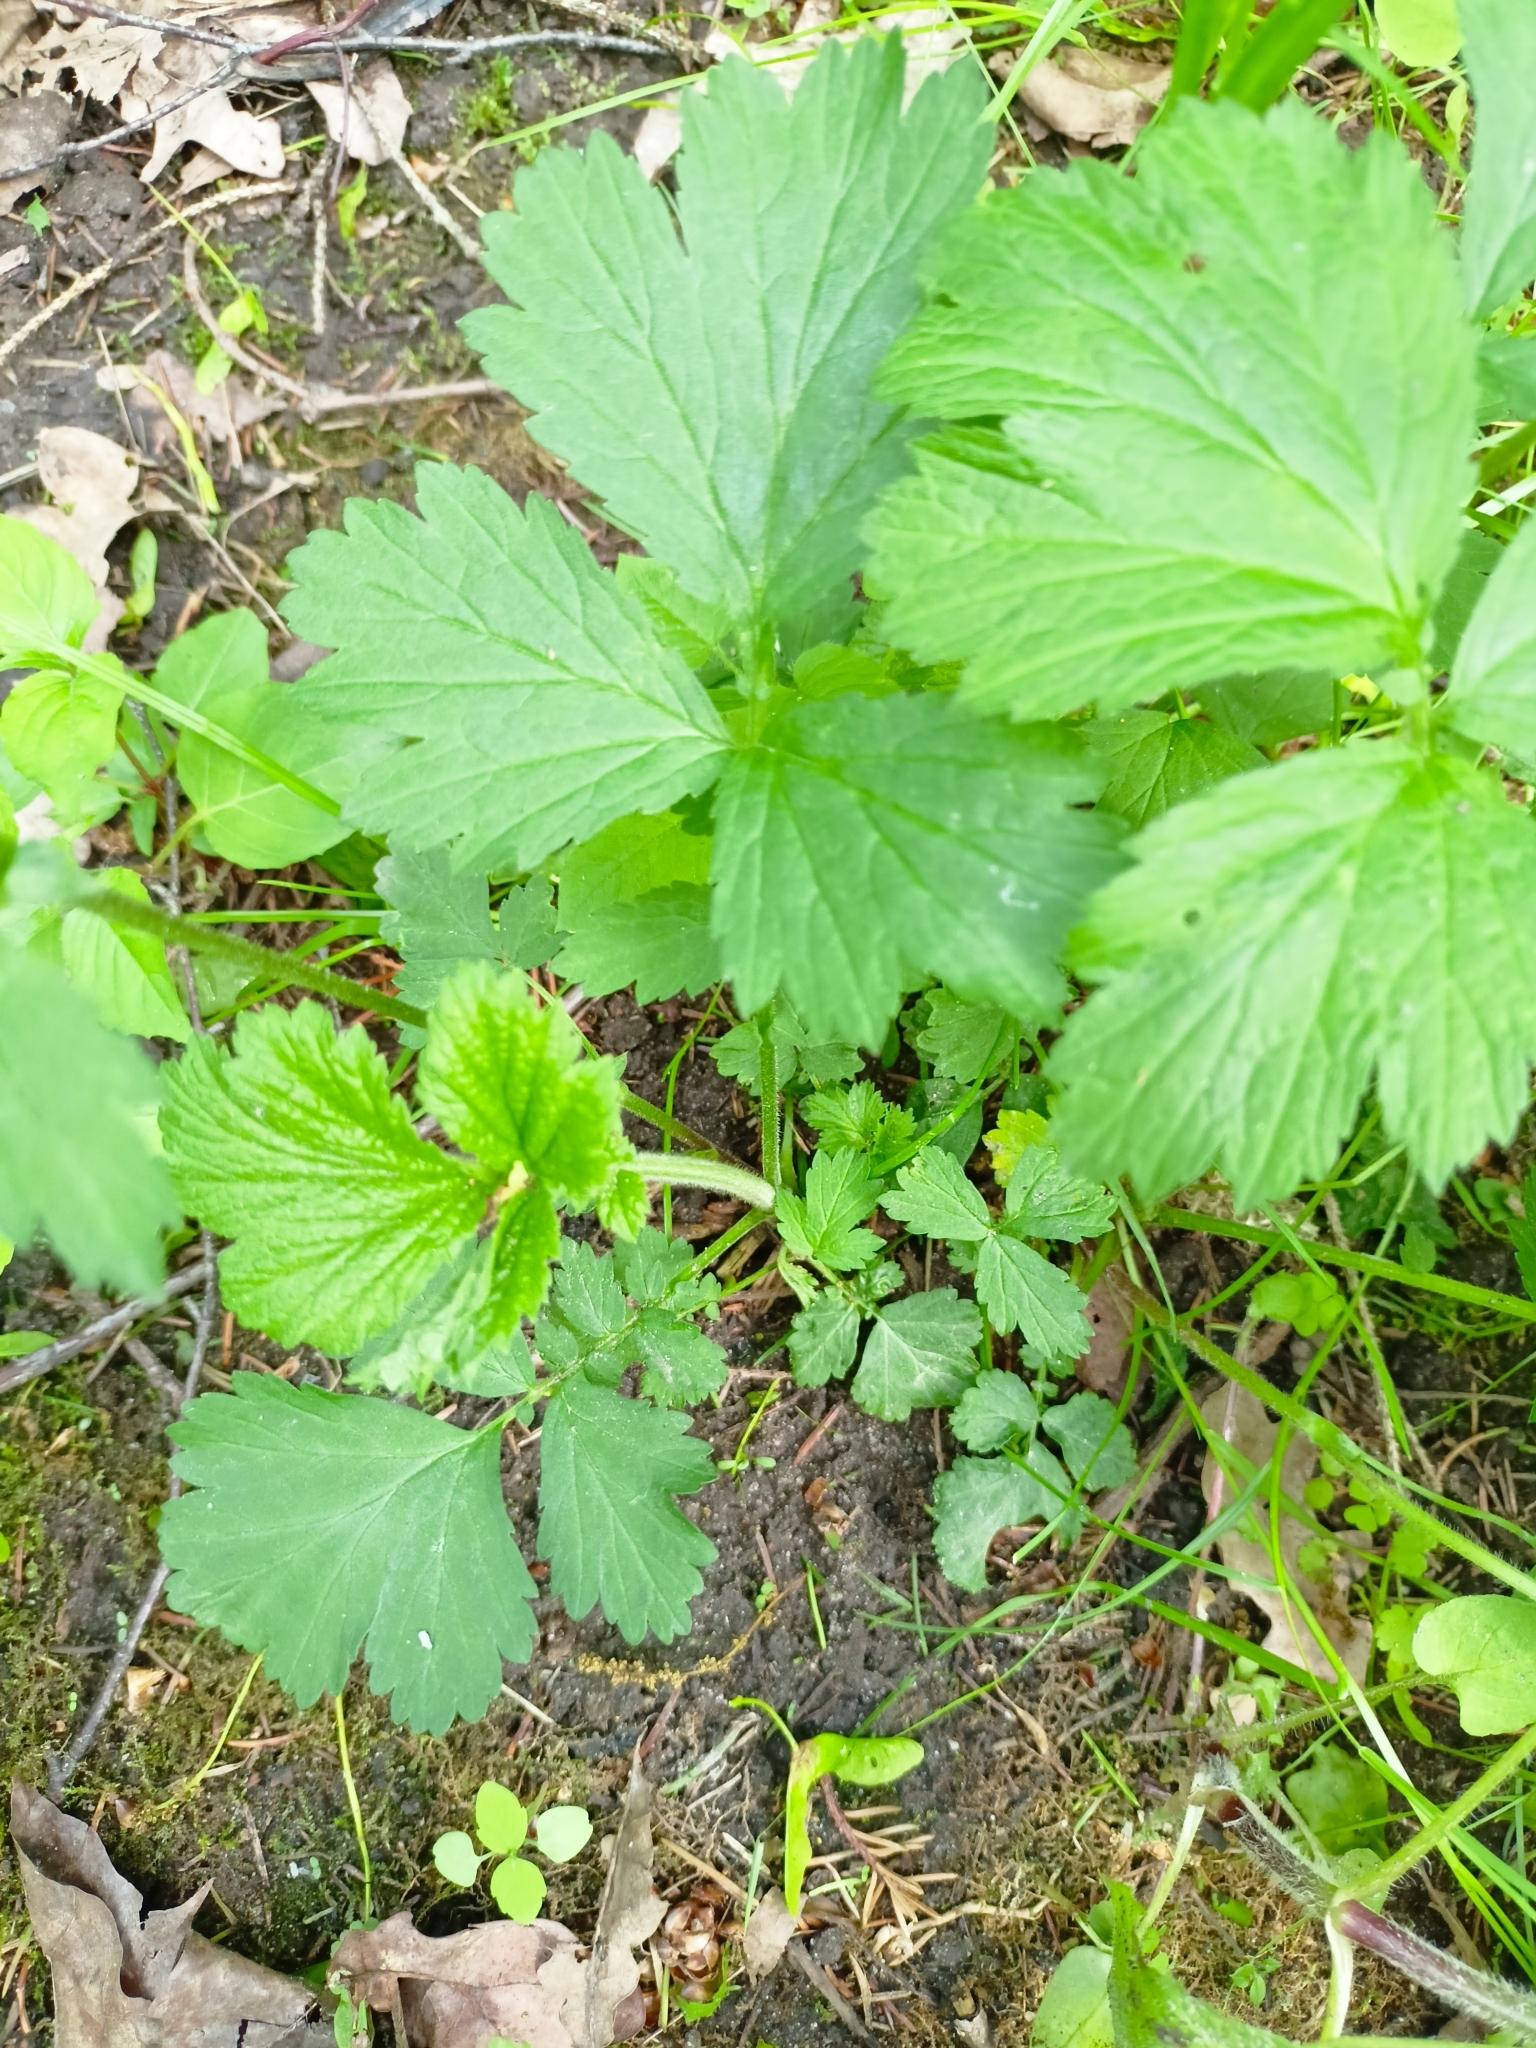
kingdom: Plantae
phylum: Tracheophyta
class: Magnoliopsida
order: Rosales
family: Rosaceae
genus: Geum
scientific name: Geum rivale
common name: Water avens
